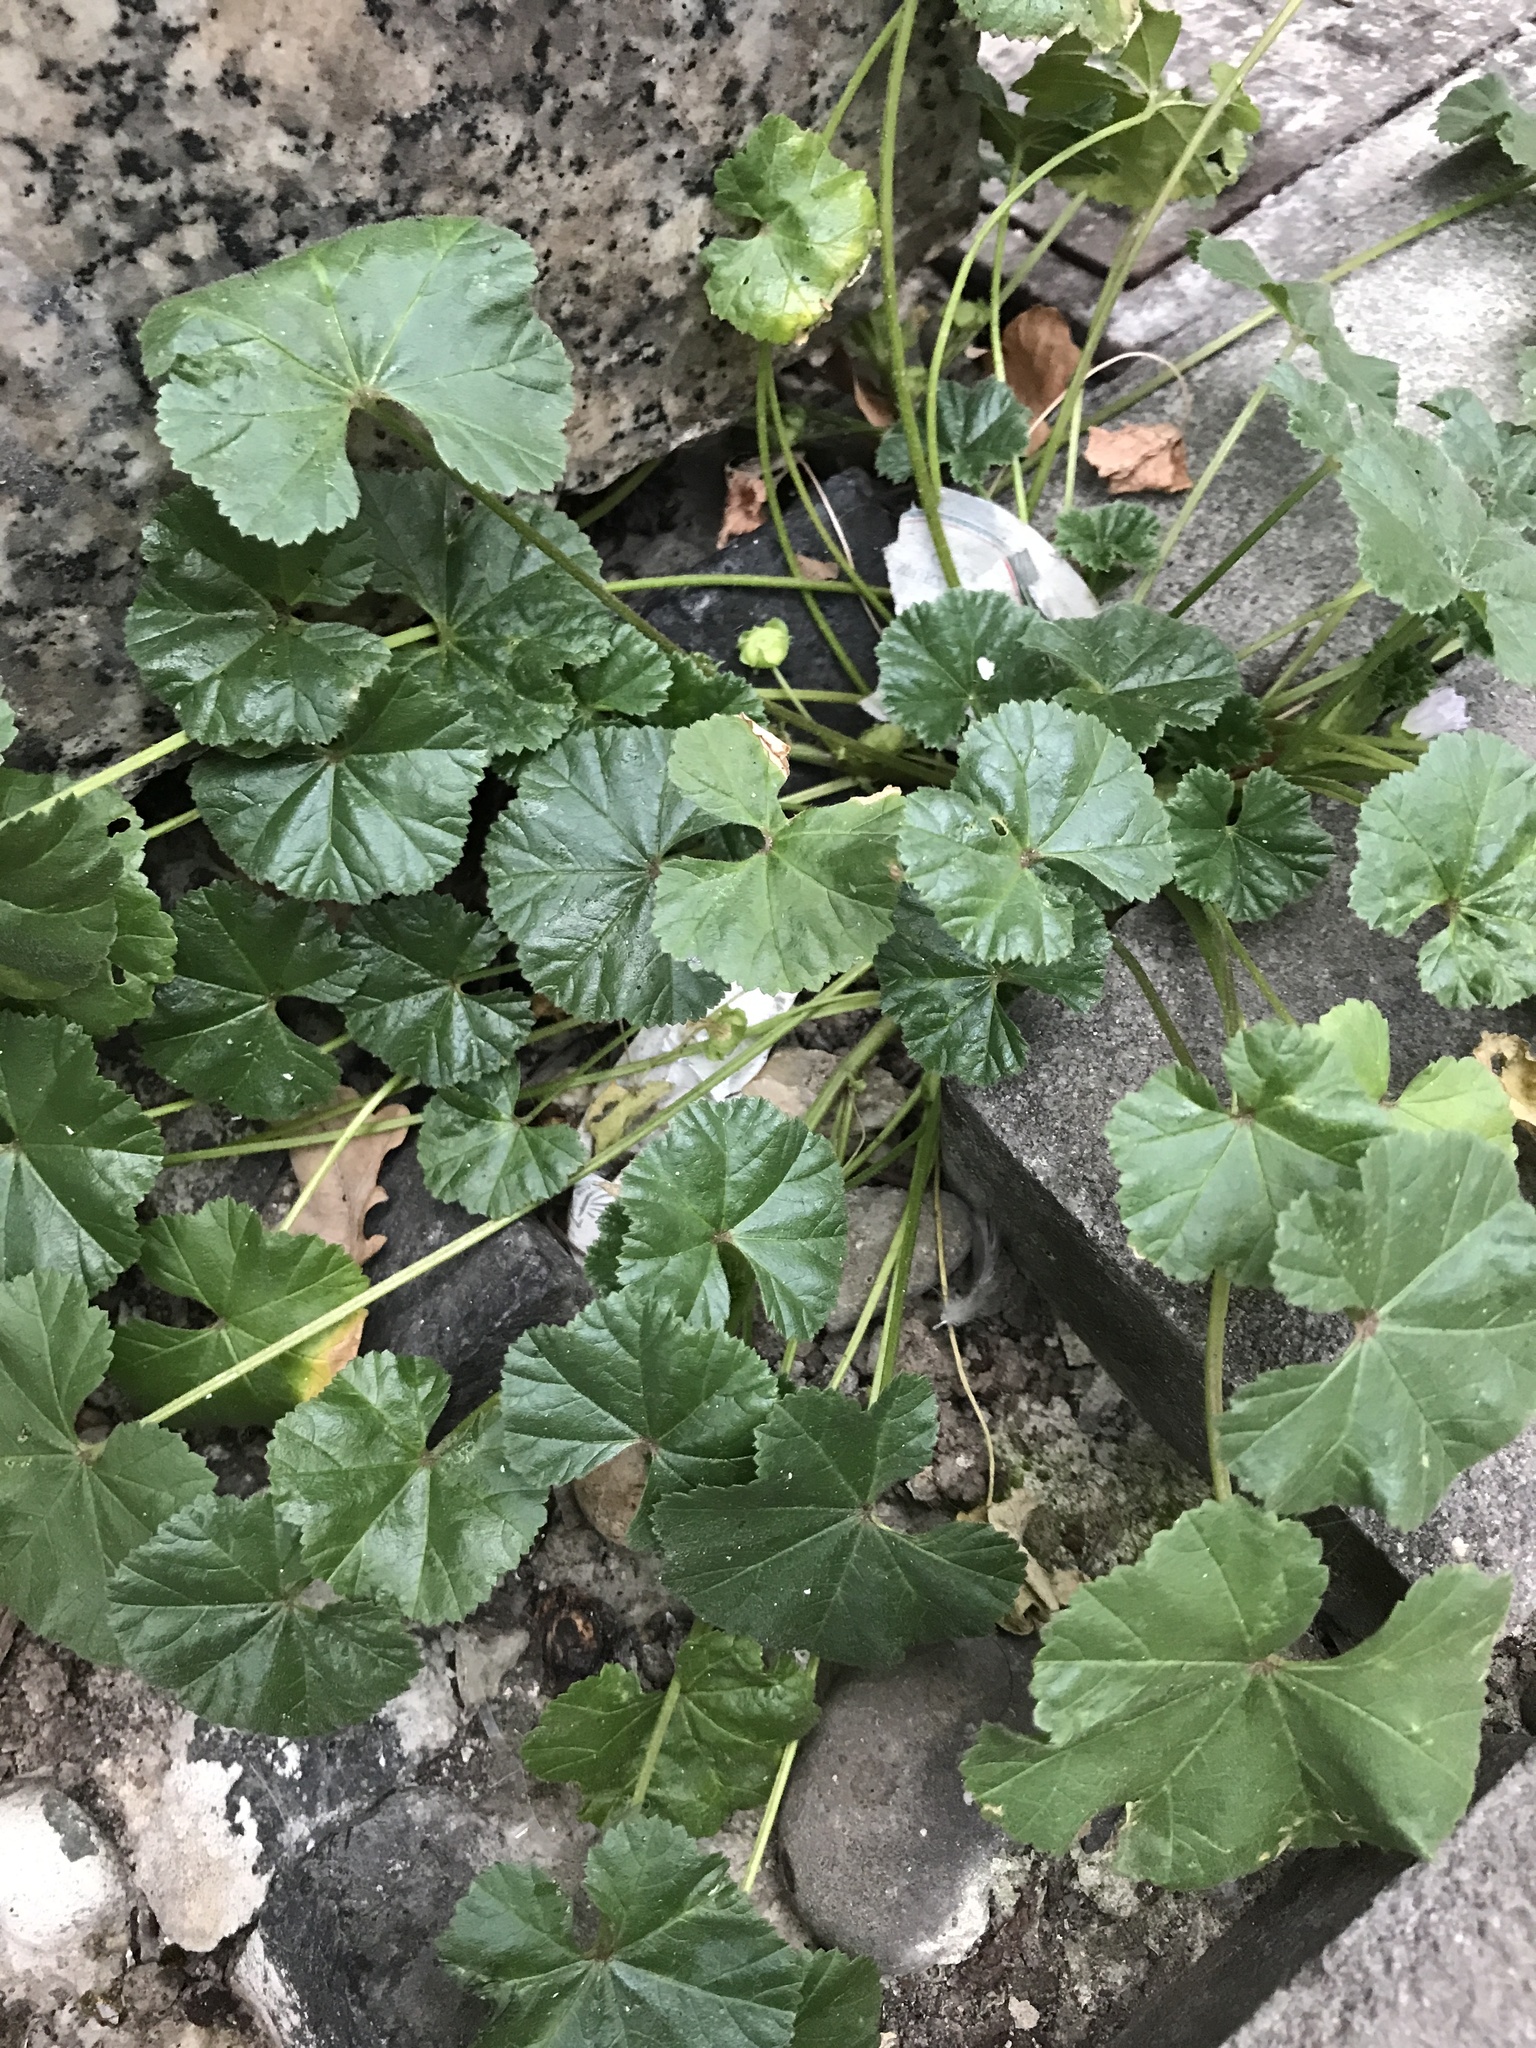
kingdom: Plantae
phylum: Tracheophyta
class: Magnoliopsida
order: Malvales
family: Malvaceae
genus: Malva
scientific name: Malva neglecta
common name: Common mallow
